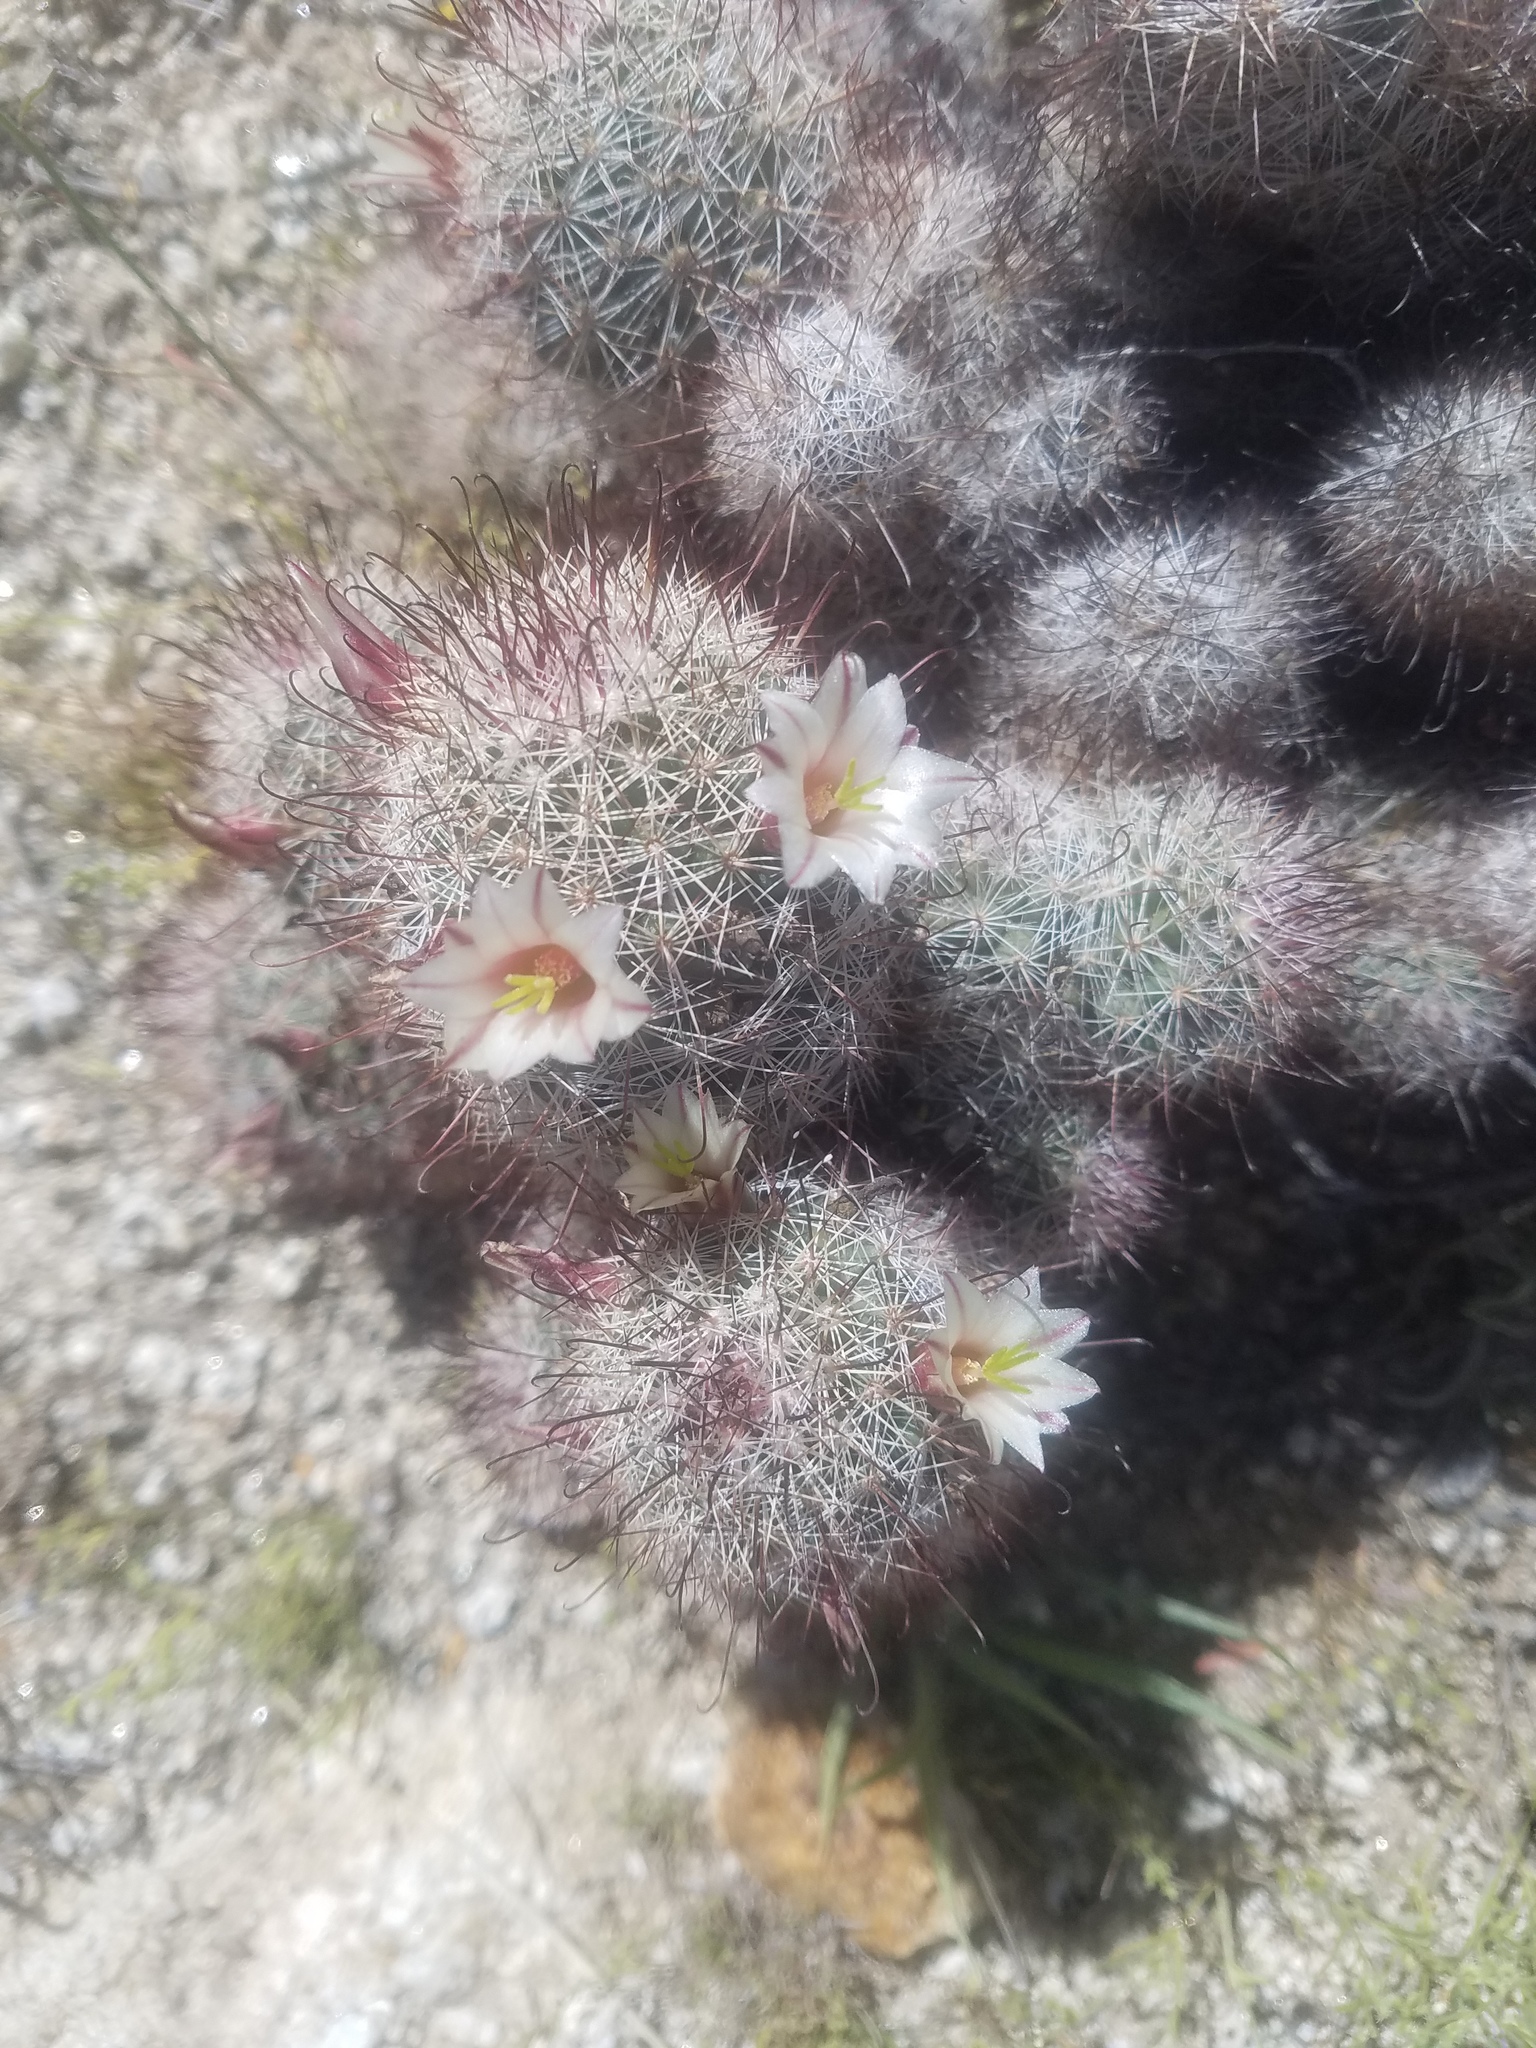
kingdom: Plantae
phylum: Tracheophyta
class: Magnoliopsida
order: Caryophyllales
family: Cactaceae
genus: Cochemiea
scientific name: Cochemiea dioica
